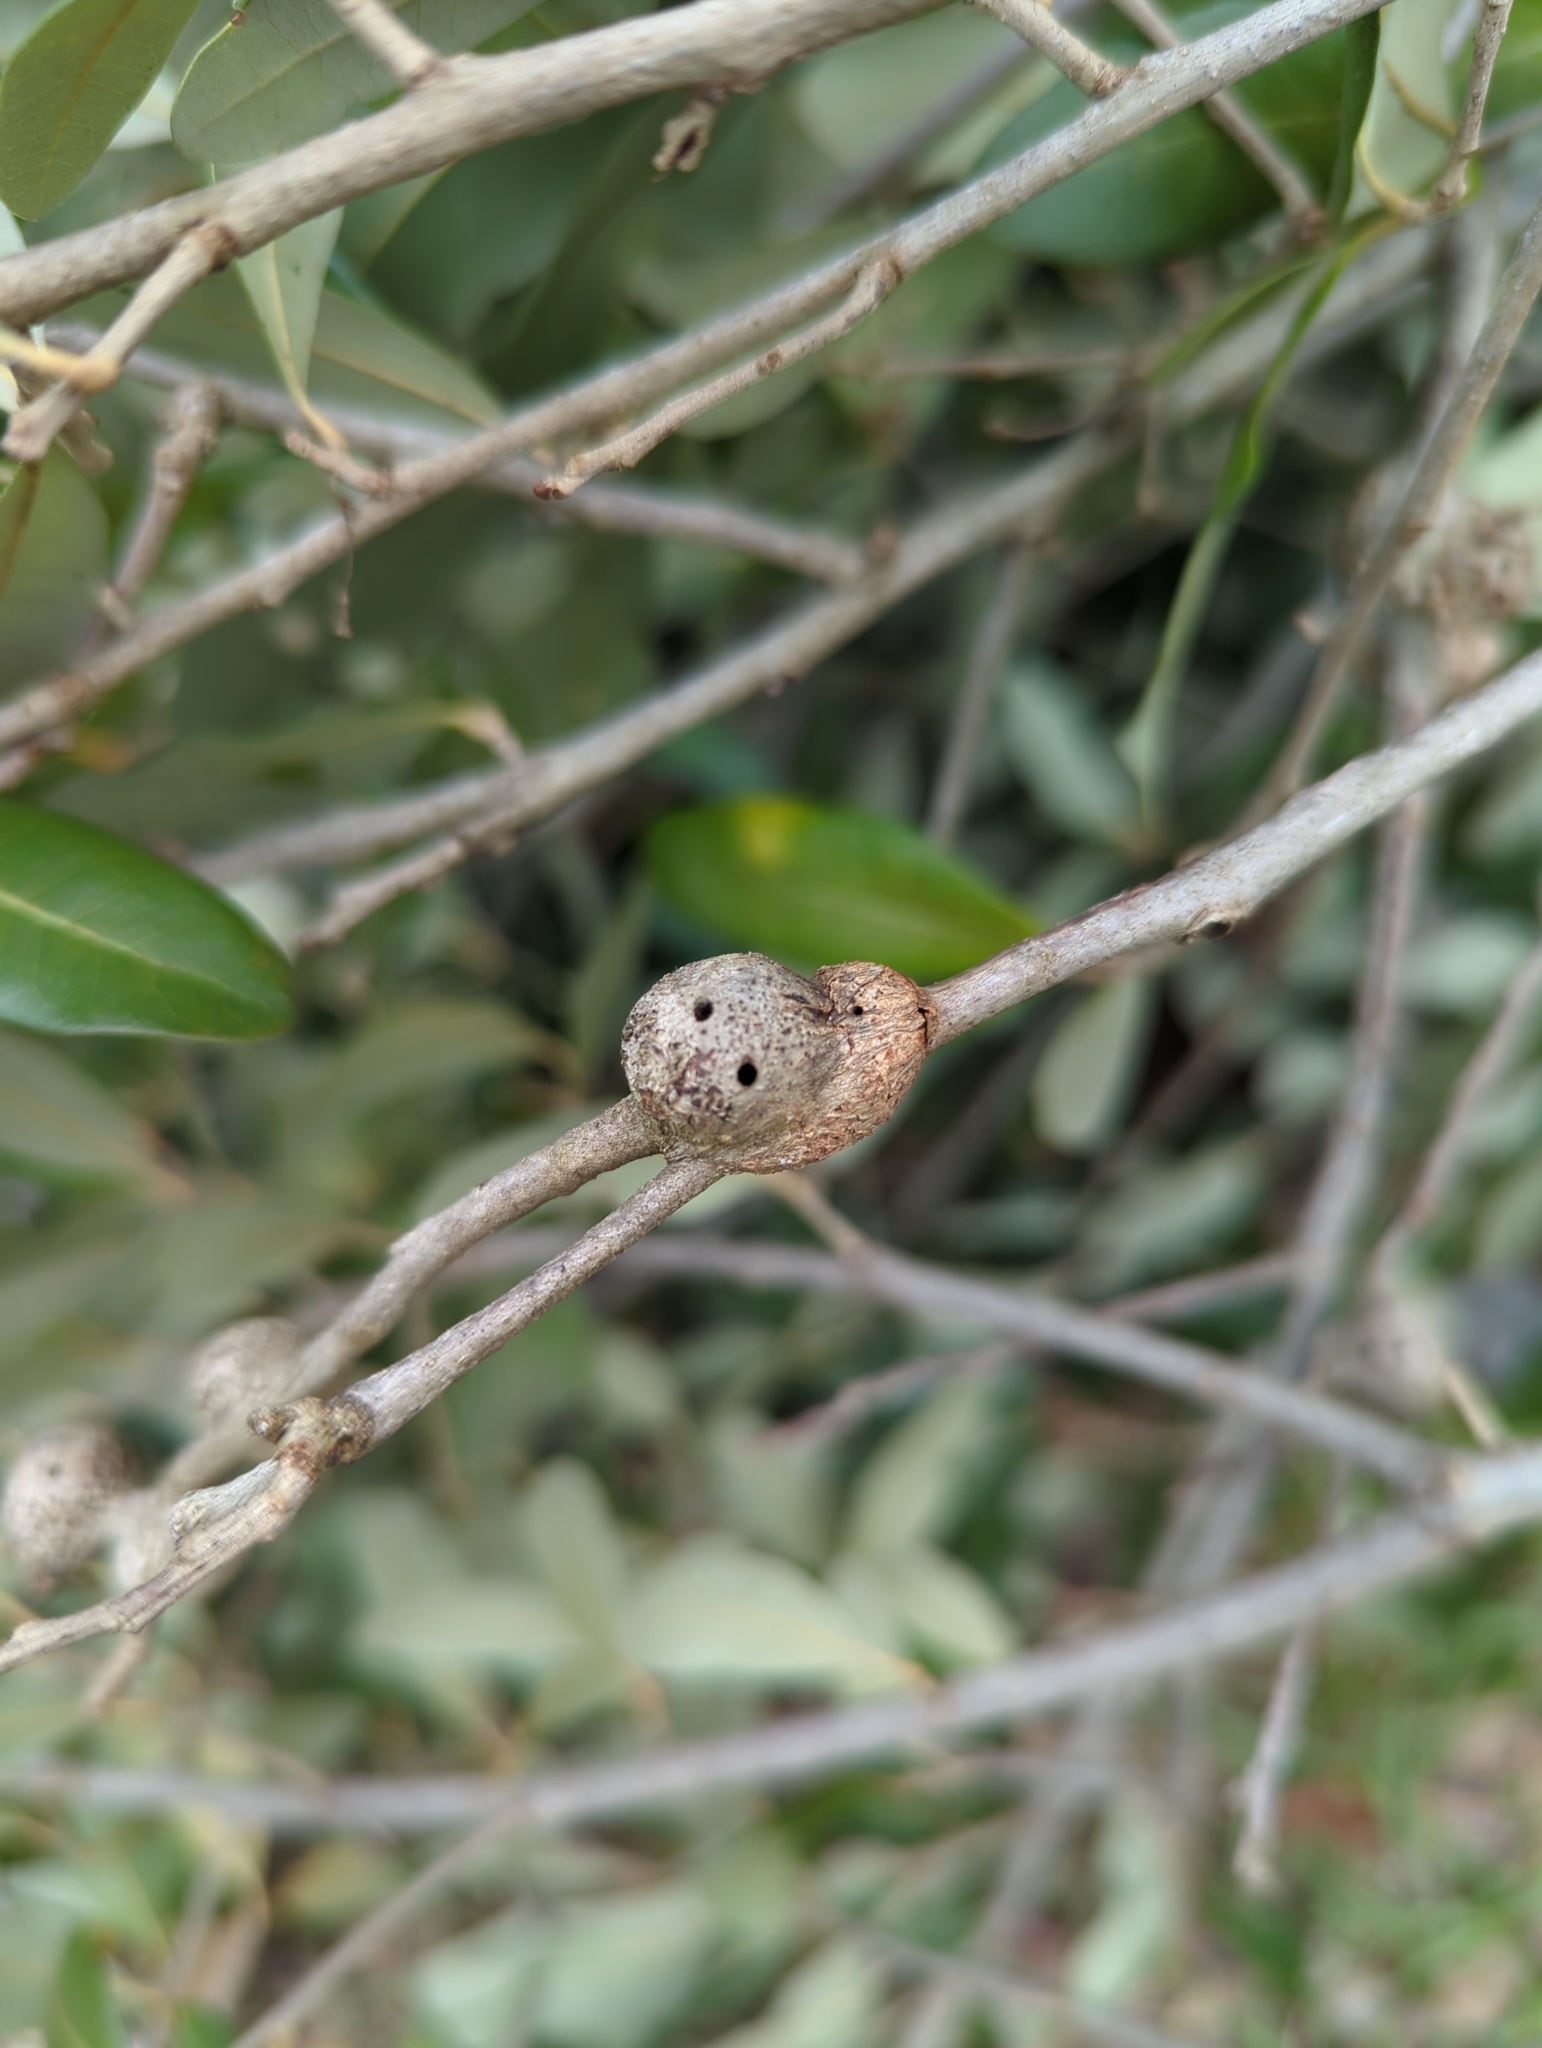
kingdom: Animalia
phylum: Arthropoda
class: Insecta
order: Hymenoptera
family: Cynipidae
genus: Callirhytis
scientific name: Callirhytis
